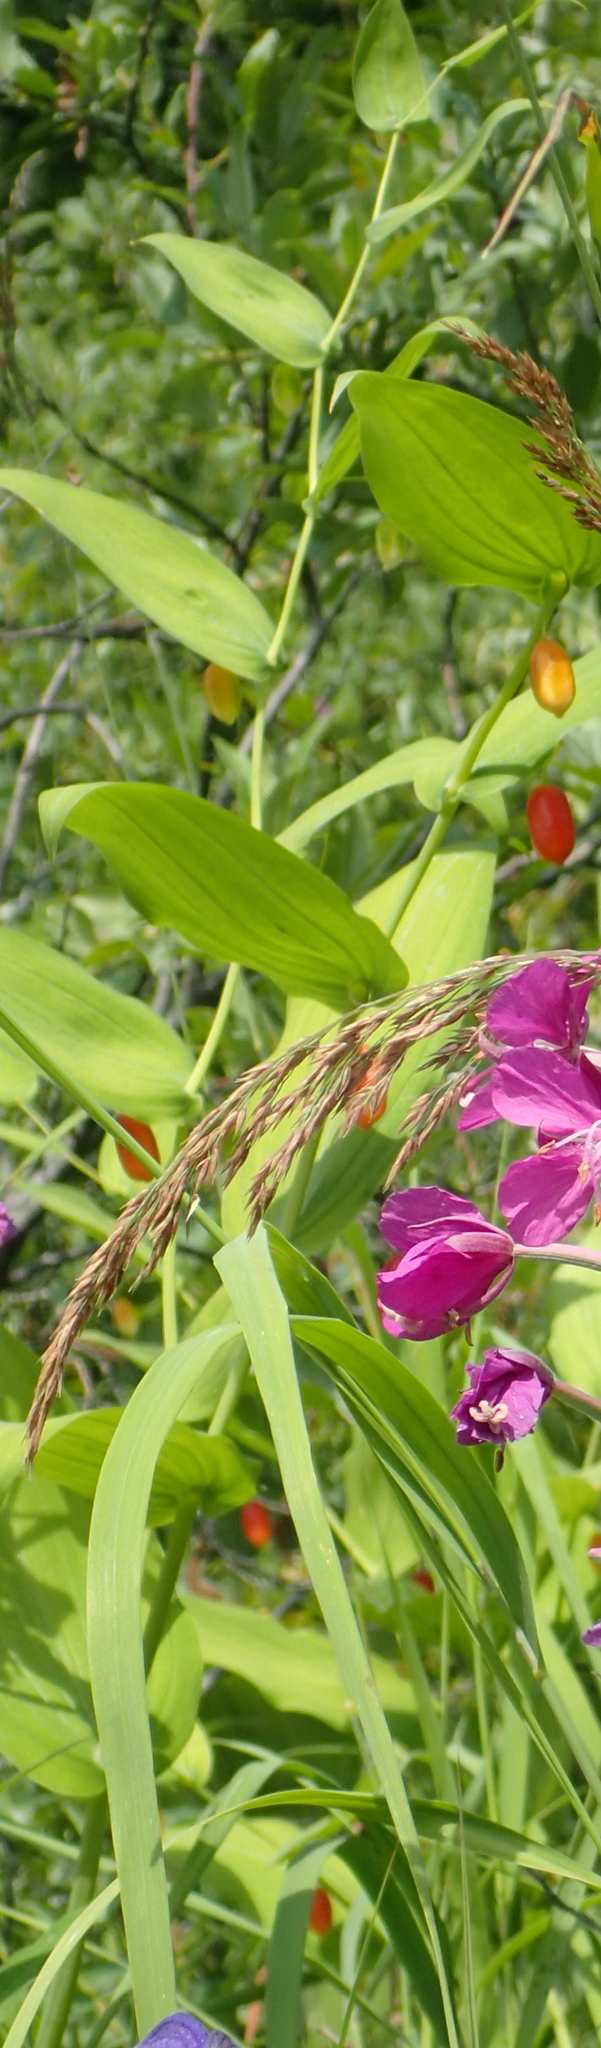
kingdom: Plantae
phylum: Tracheophyta
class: Liliopsida
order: Liliales
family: Liliaceae
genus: Streptopus
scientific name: Streptopus amplexifolius
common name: Clasp twisted stalk
